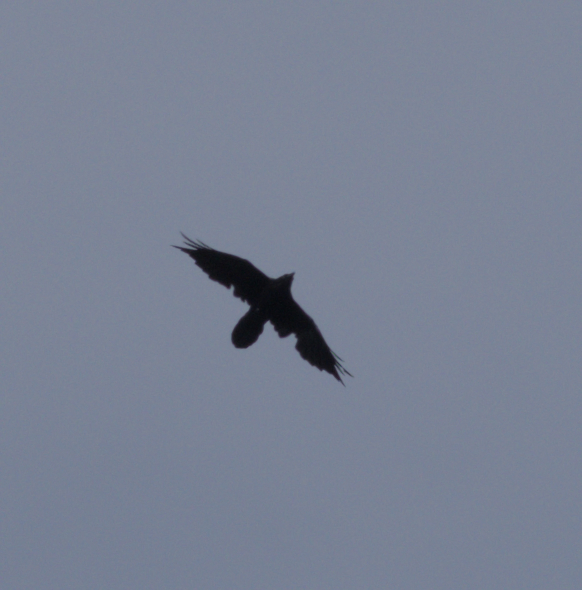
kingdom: Animalia
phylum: Chordata
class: Aves
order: Passeriformes
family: Corvidae
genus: Corvus
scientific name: Corvus corax
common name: Common raven
